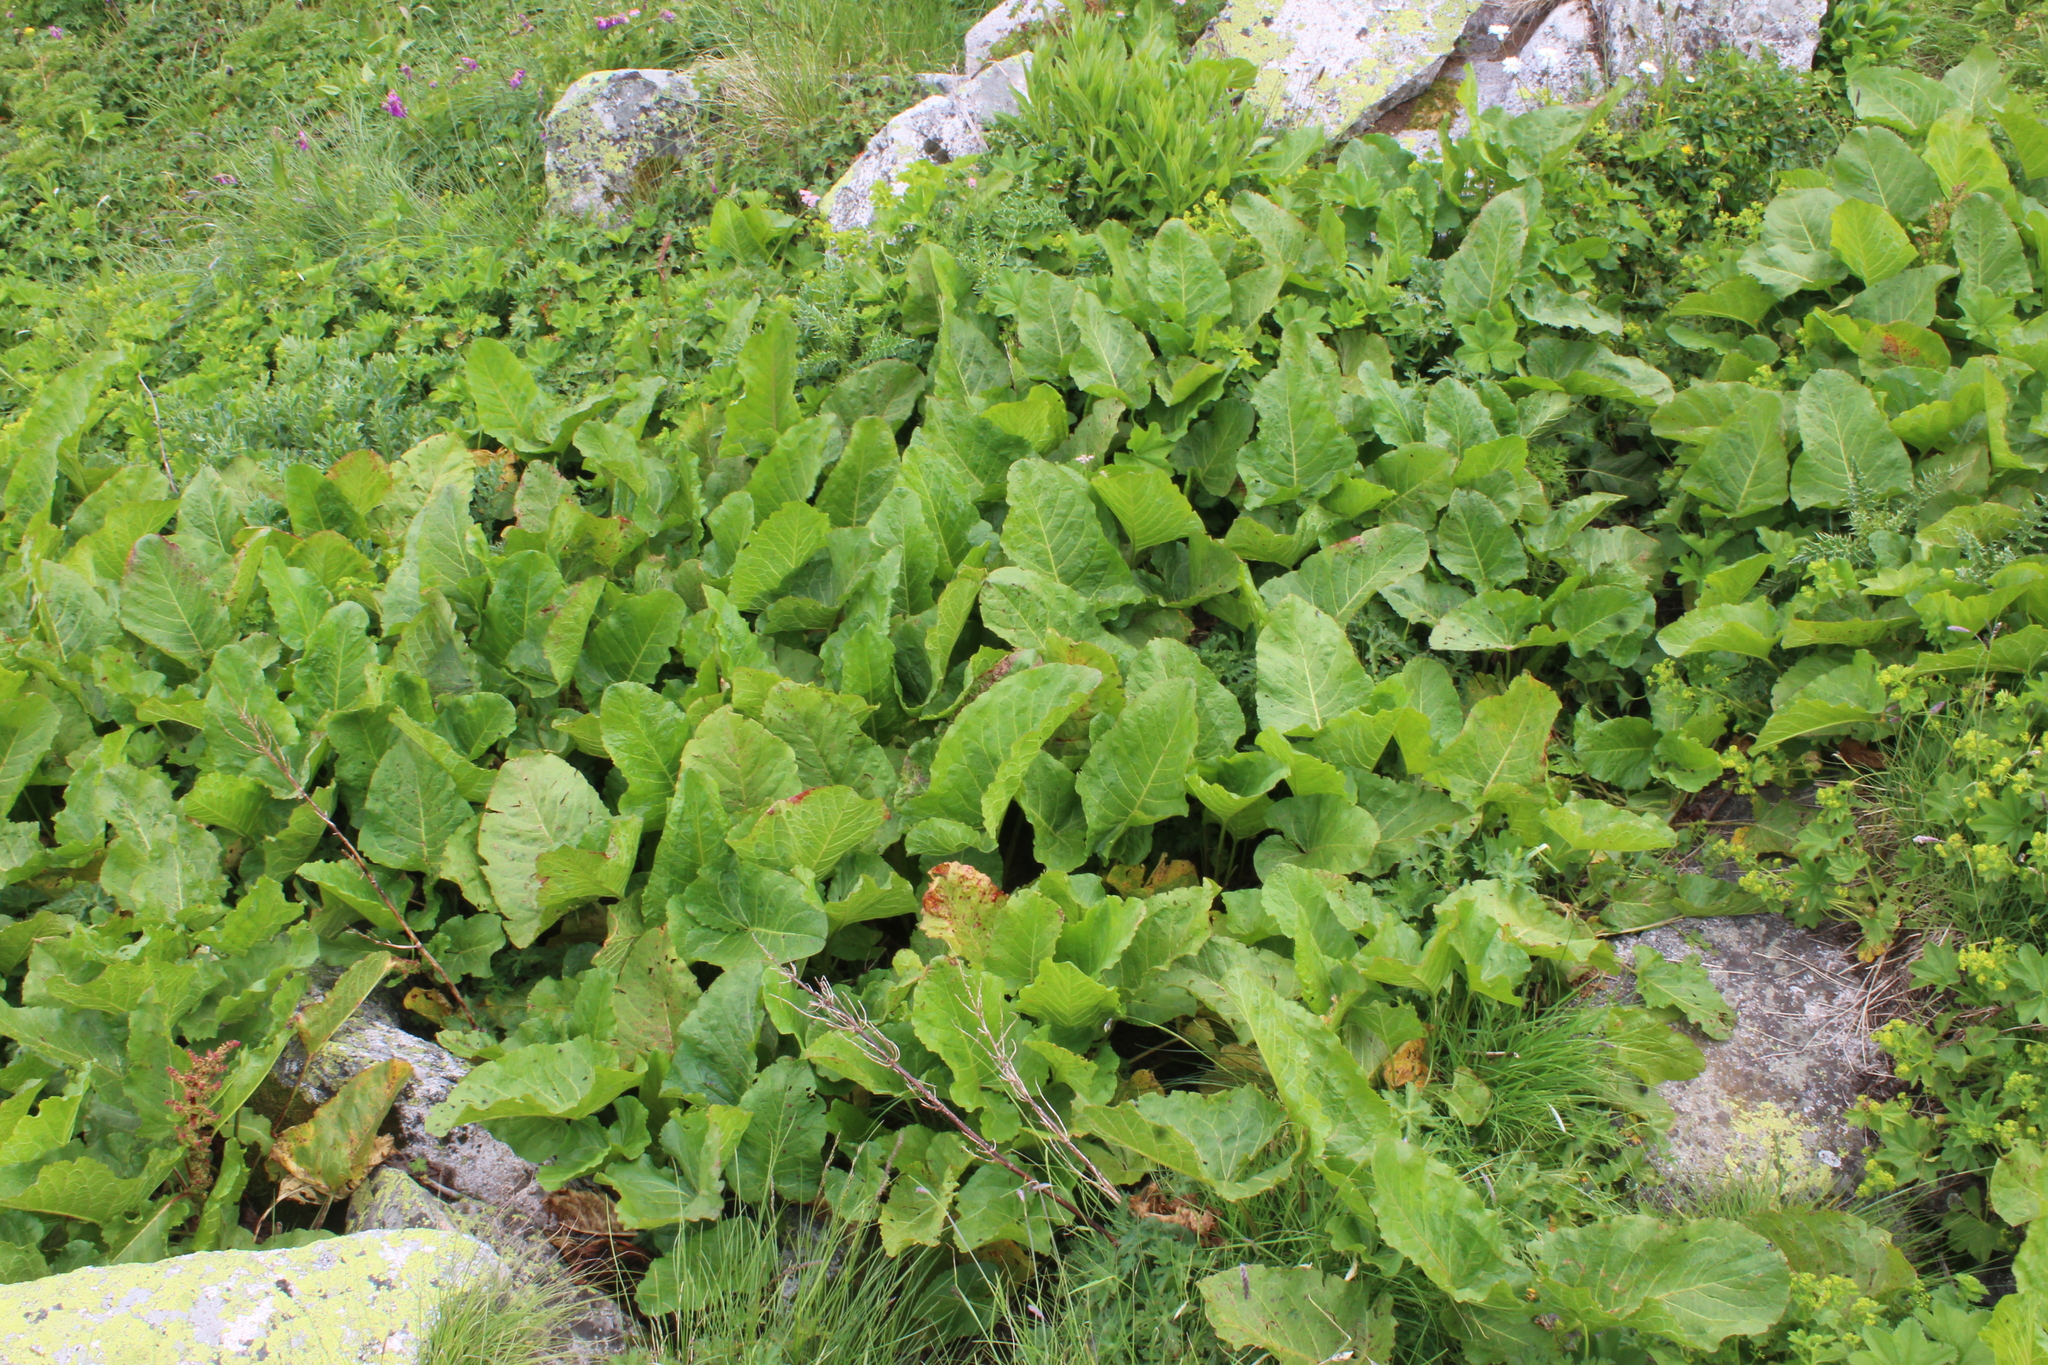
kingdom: Plantae
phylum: Tracheophyta
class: Magnoliopsida
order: Caryophyllales
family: Polygonaceae
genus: Rumex
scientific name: Rumex alpinus
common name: Alpine dock
